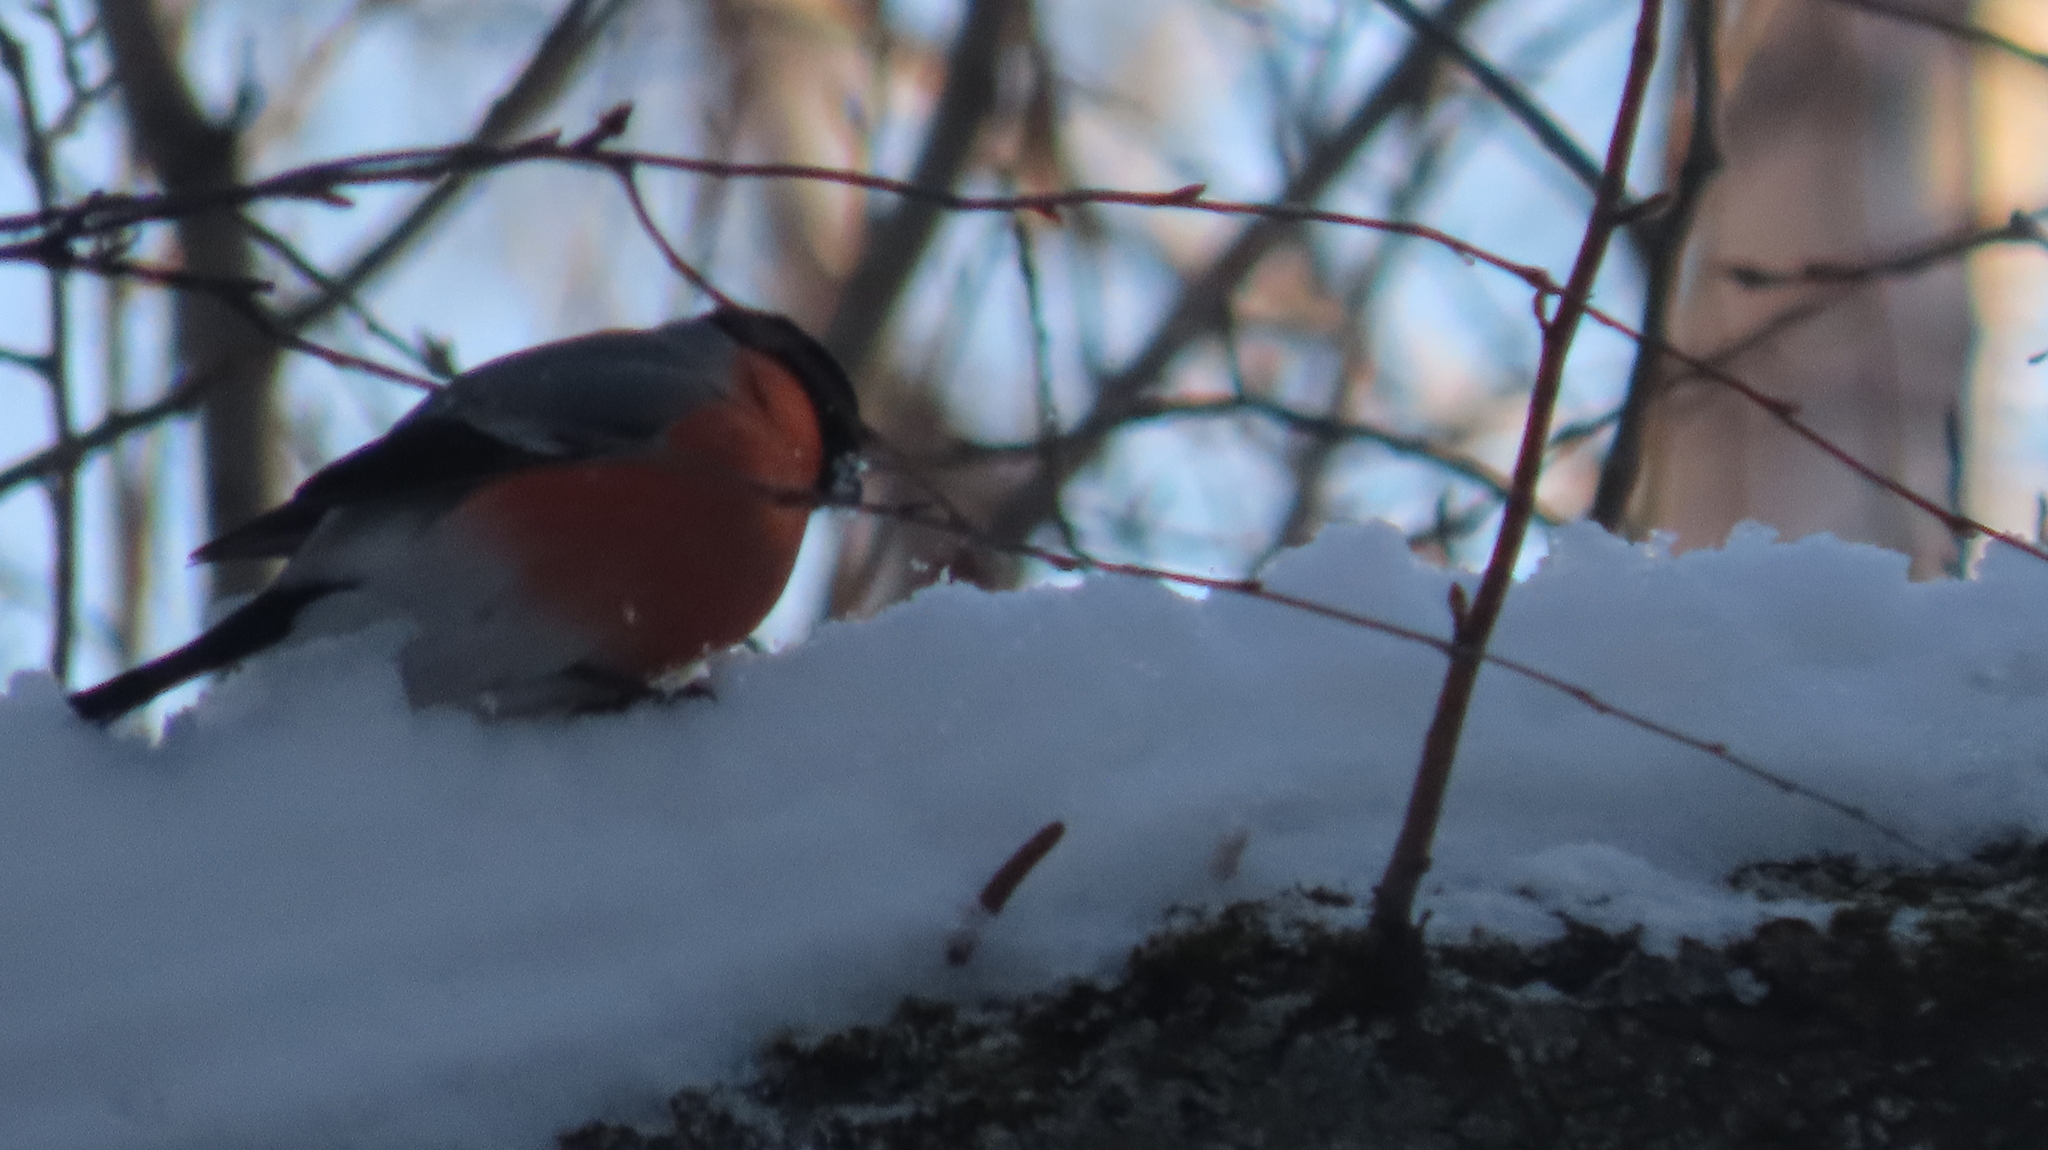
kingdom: Animalia
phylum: Chordata
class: Aves
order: Passeriformes
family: Fringillidae
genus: Pyrrhula
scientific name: Pyrrhula pyrrhula
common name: Eurasian bullfinch
